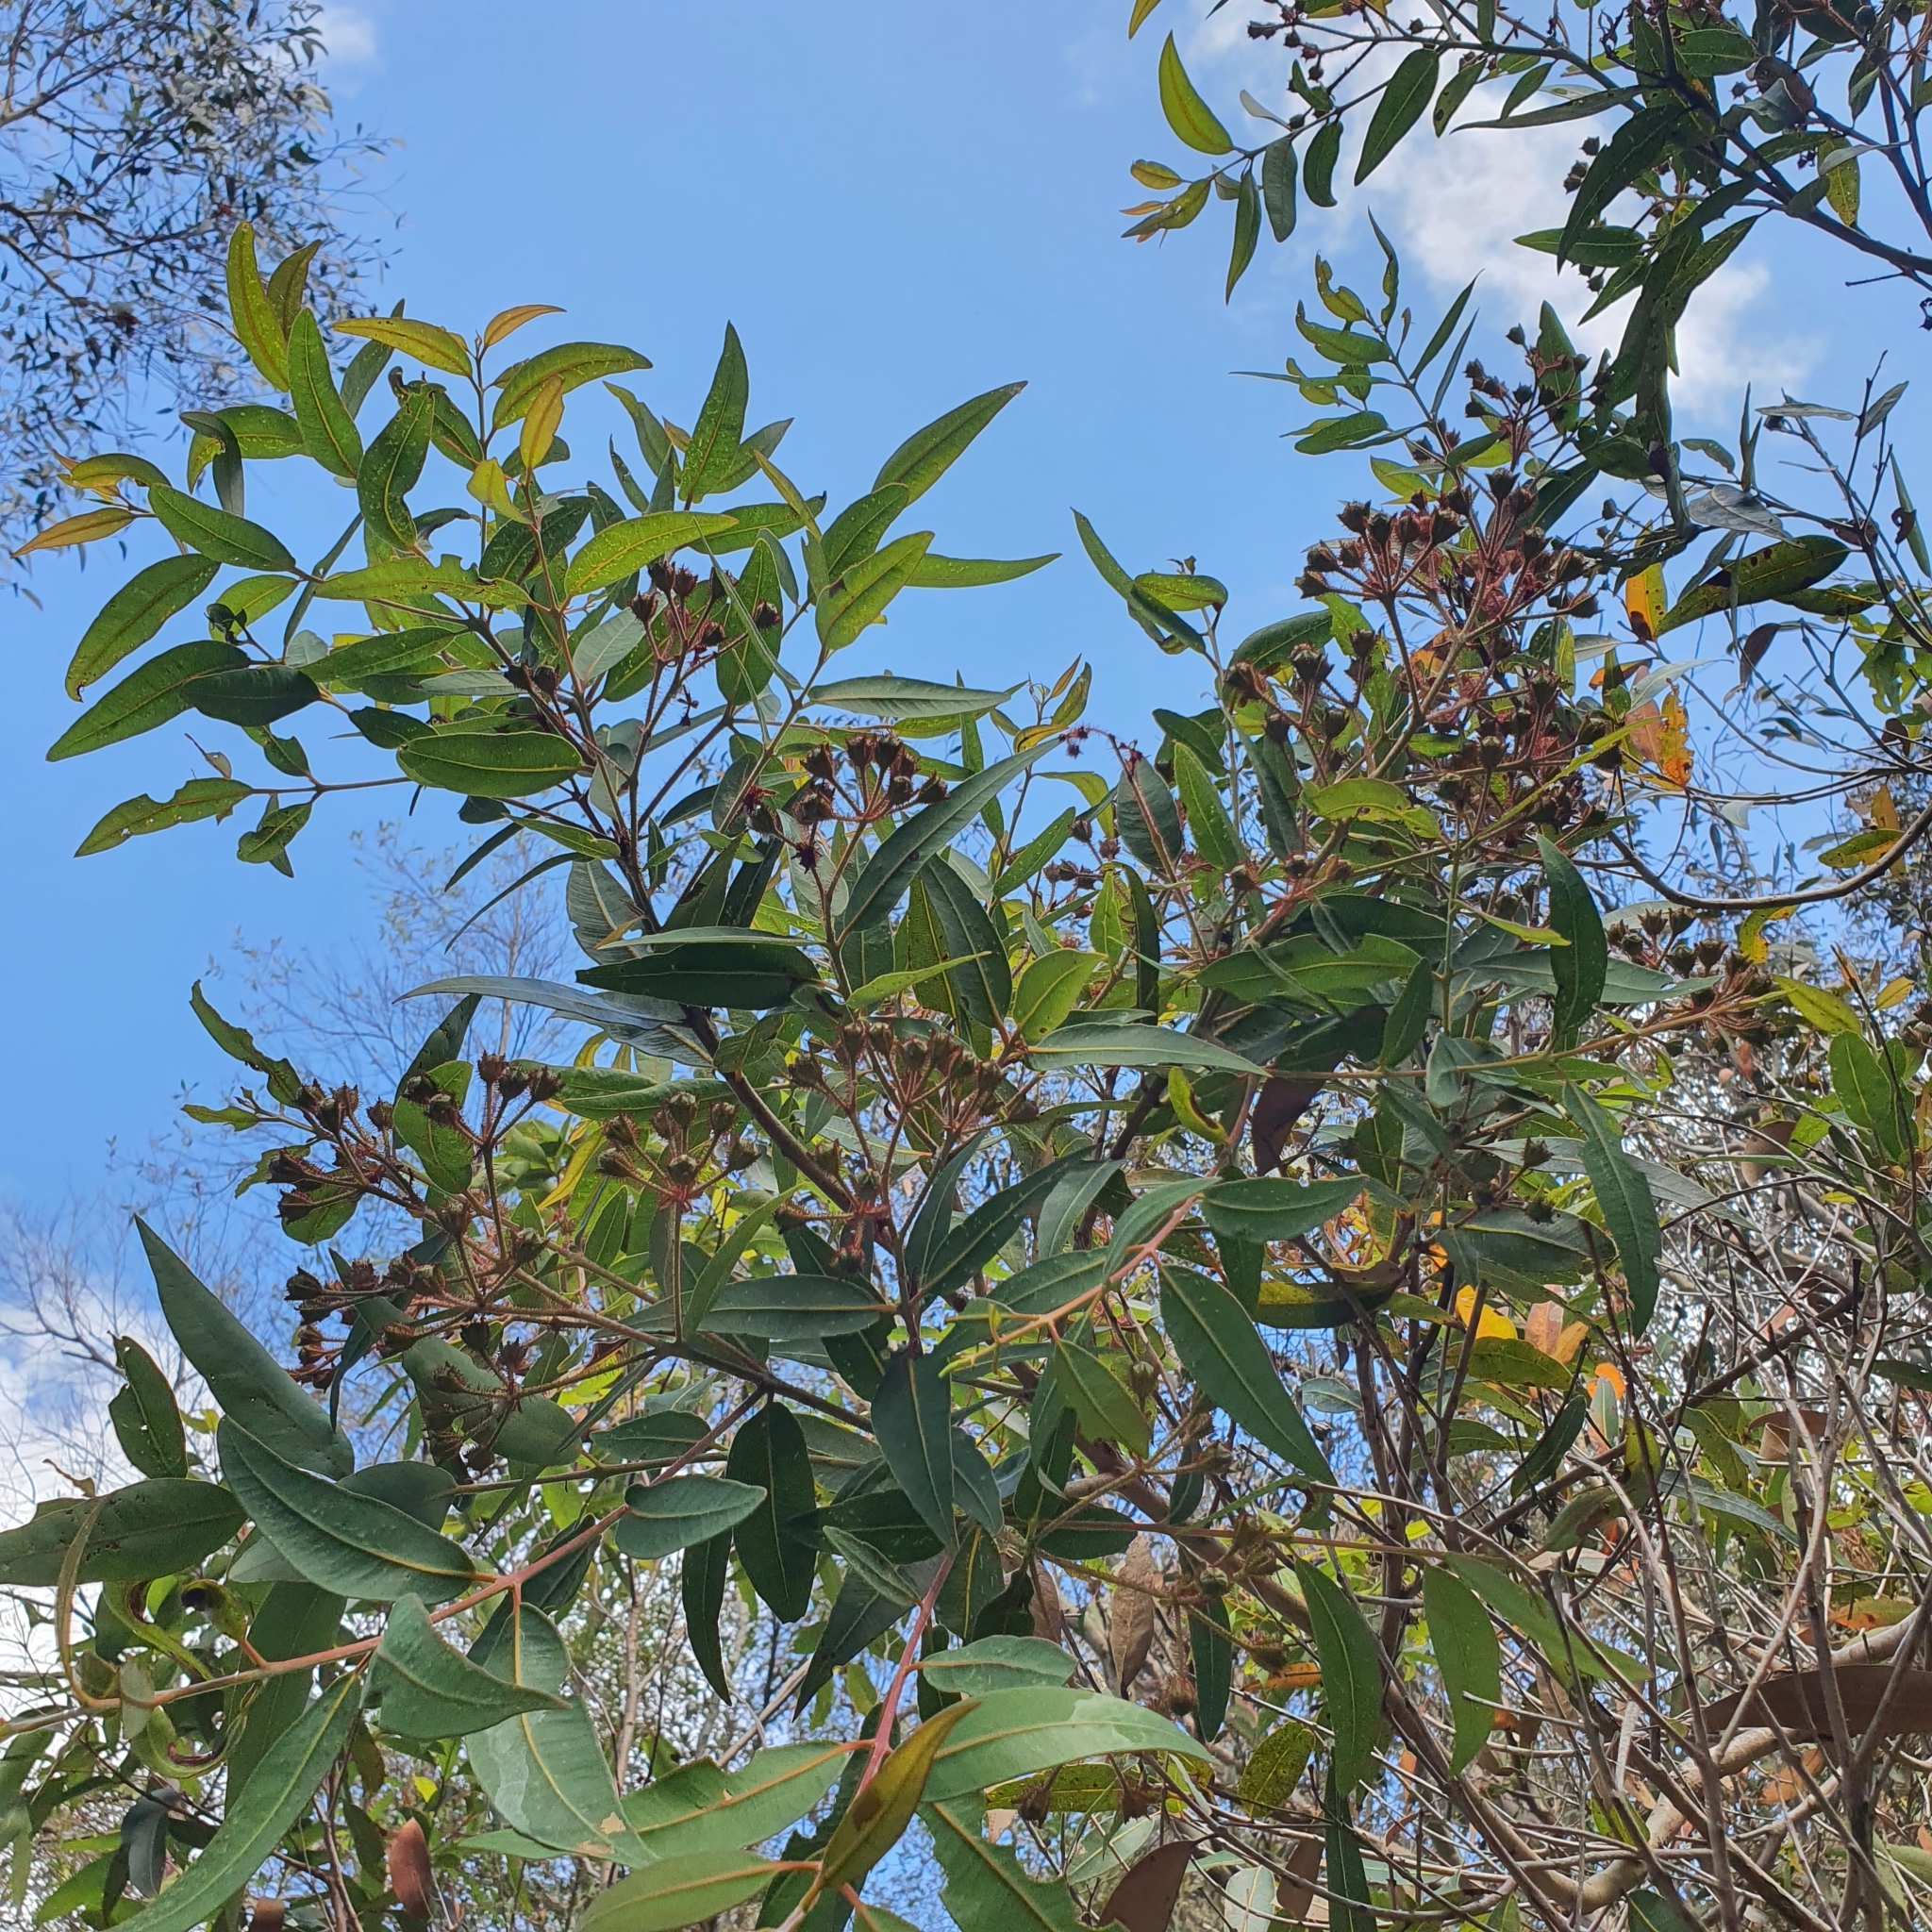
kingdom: Plantae
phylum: Tracheophyta
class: Magnoliopsida
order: Myrtales
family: Myrtaceae
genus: Angophora
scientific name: Angophora hispida
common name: Dwarf-apple
